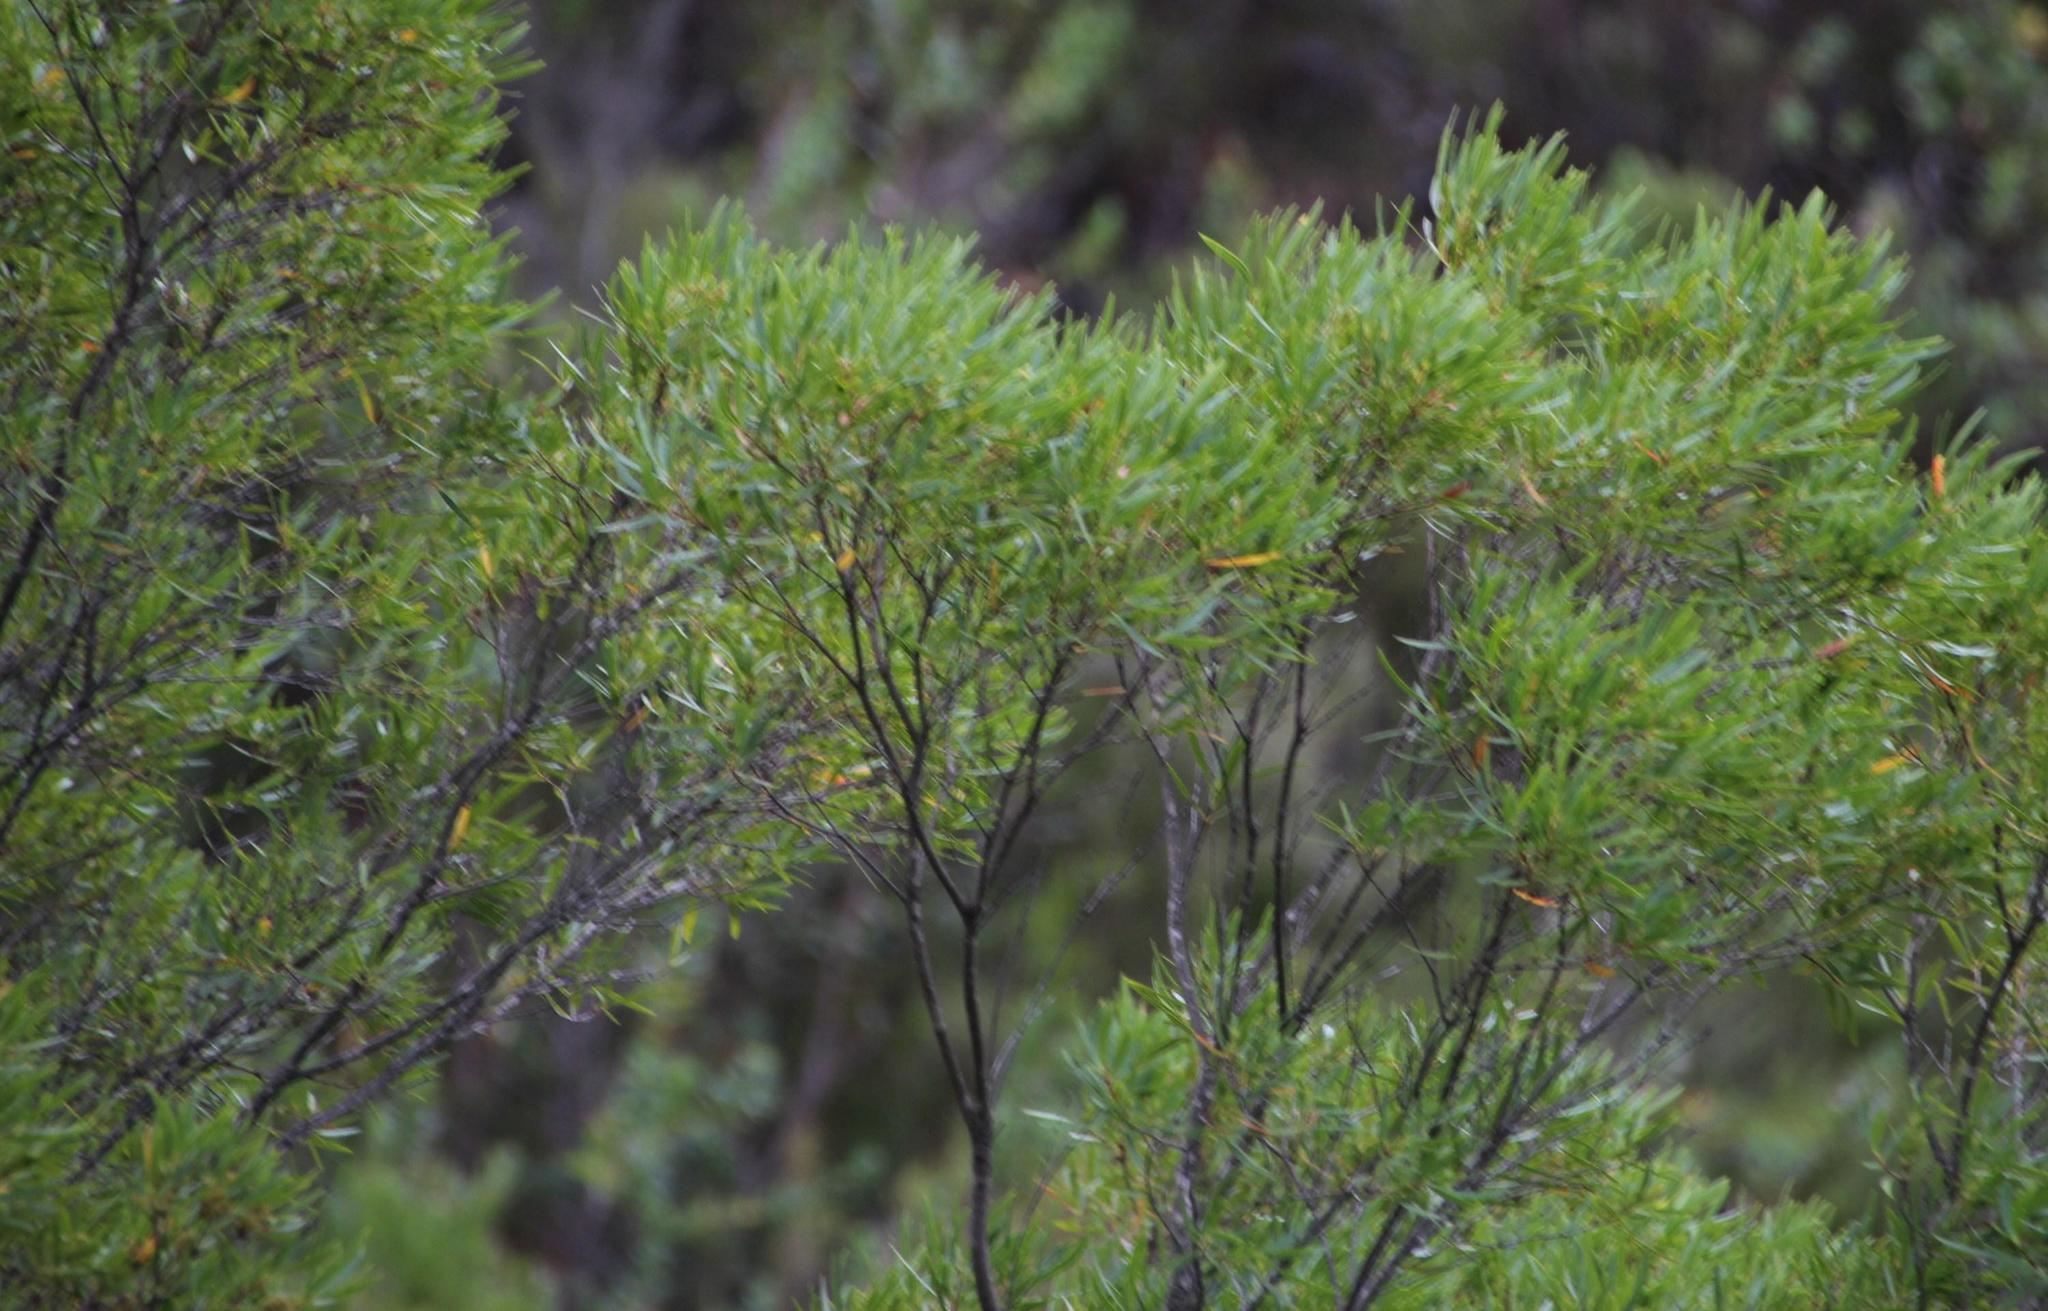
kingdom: Plantae
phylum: Tracheophyta
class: Magnoliopsida
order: Myrtales
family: Myrtaceae
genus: Callistemon
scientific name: Callistemon lanceolatus
